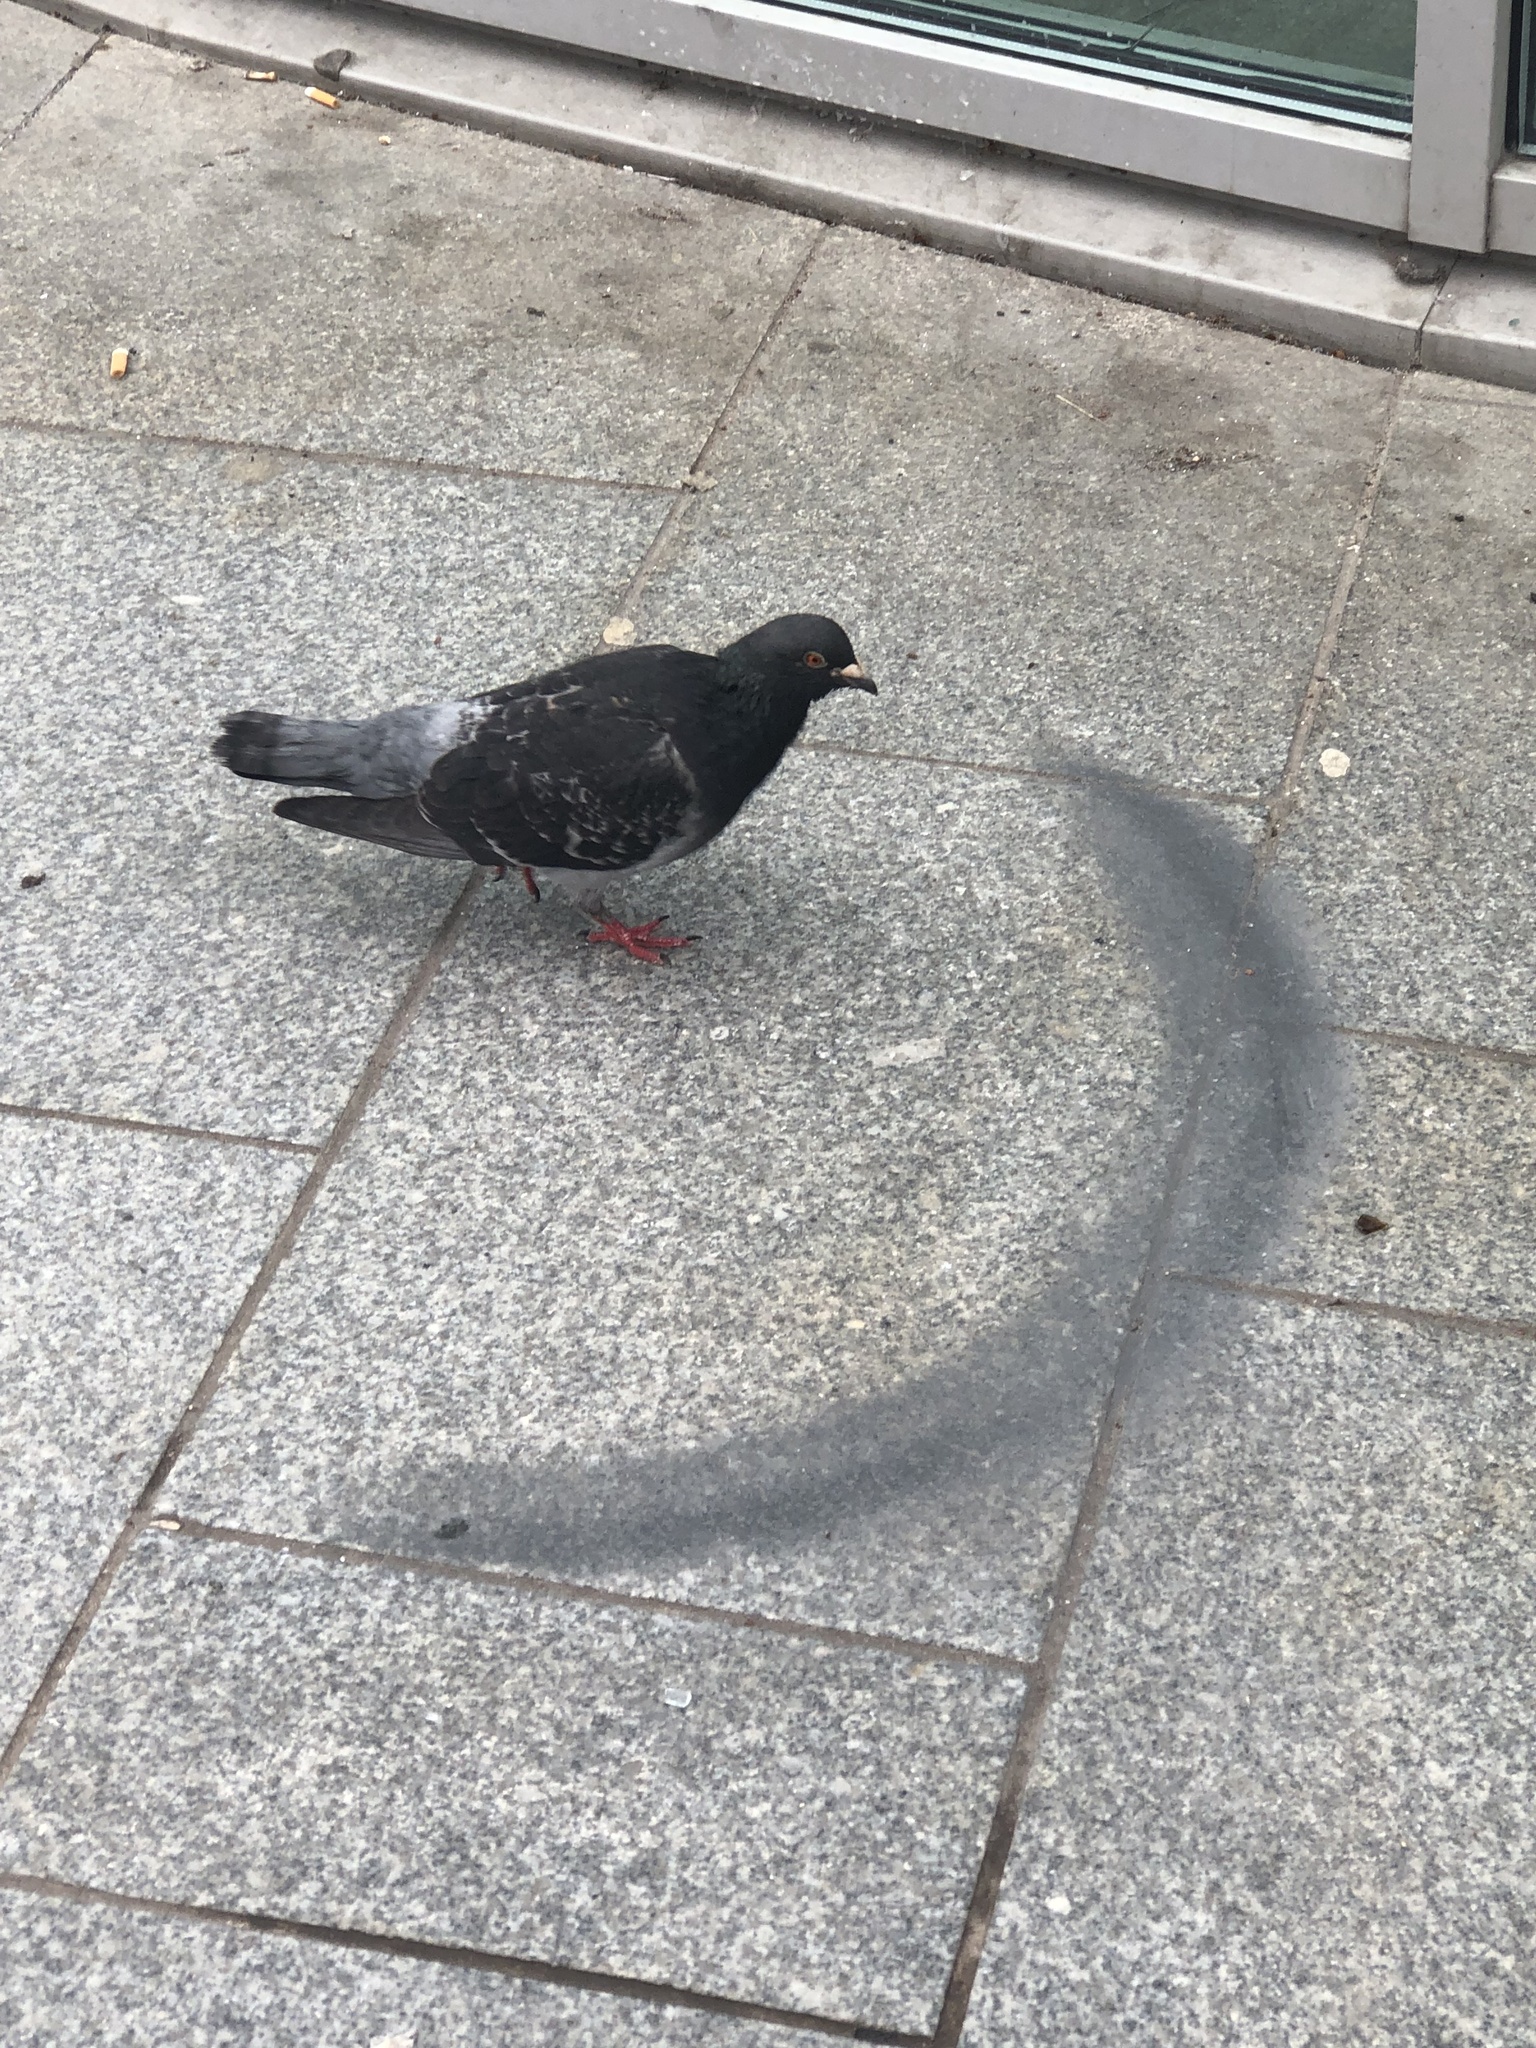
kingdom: Animalia
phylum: Chordata
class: Aves
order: Columbiformes
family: Columbidae
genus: Columba
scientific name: Columba livia
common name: Rock pigeon
